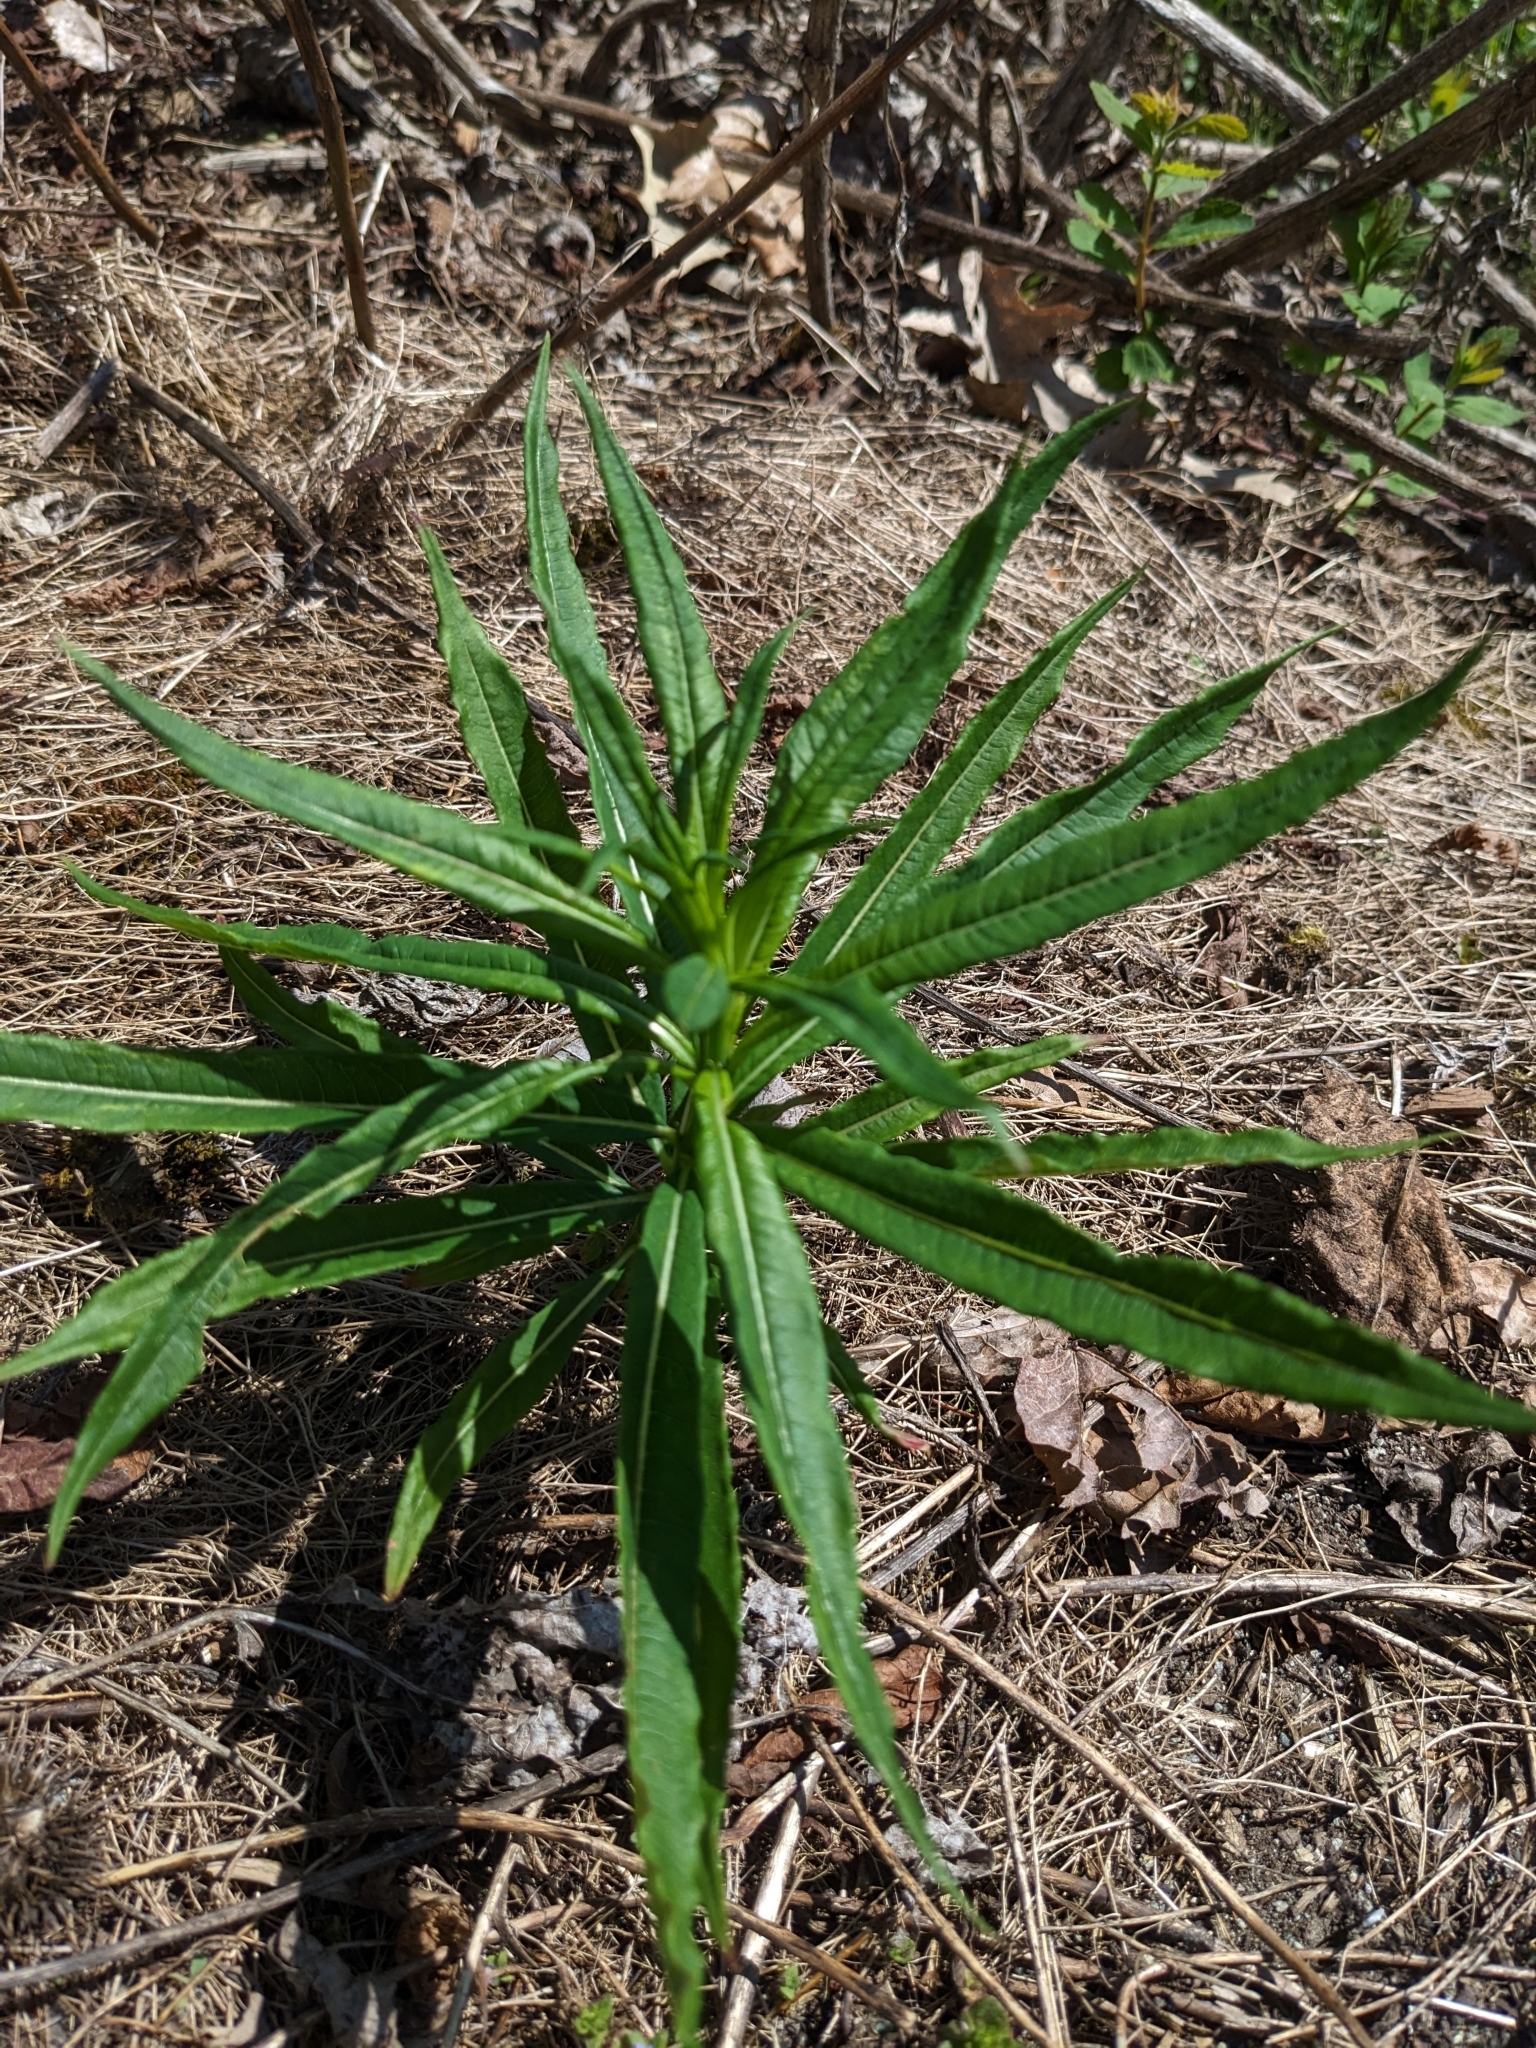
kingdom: Plantae
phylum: Tracheophyta
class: Magnoliopsida
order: Myrtales
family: Onagraceae
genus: Chamaenerion
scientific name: Chamaenerion angustifolium
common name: Fireweed
